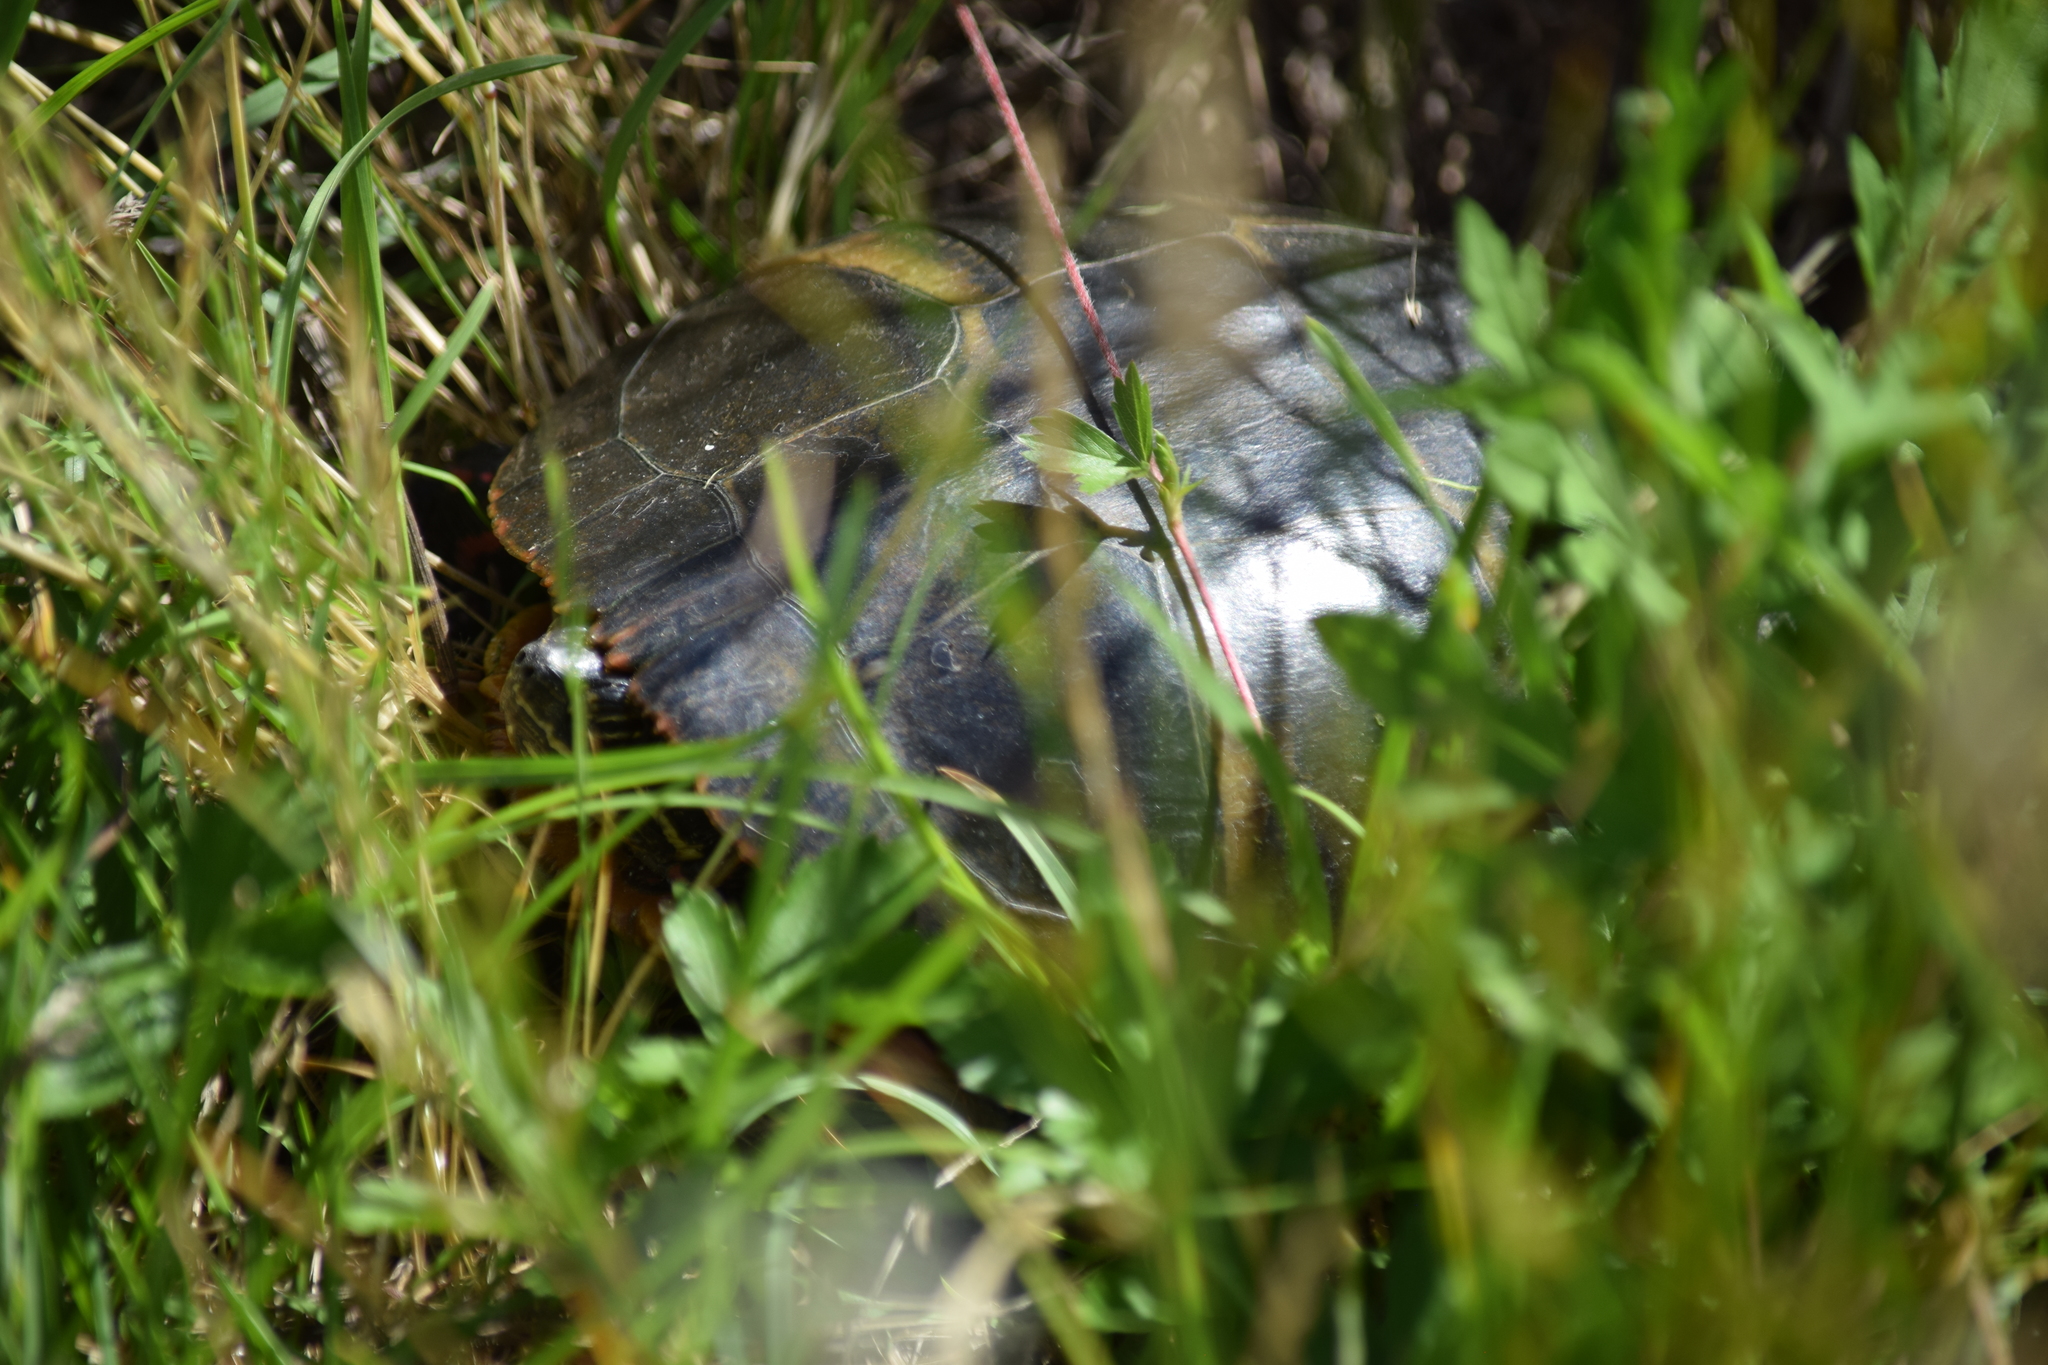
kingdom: Animalia
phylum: Chordata
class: Testudines
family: Emydidae
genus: Chrysemys
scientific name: Chrysemys picta
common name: Painted turtle
